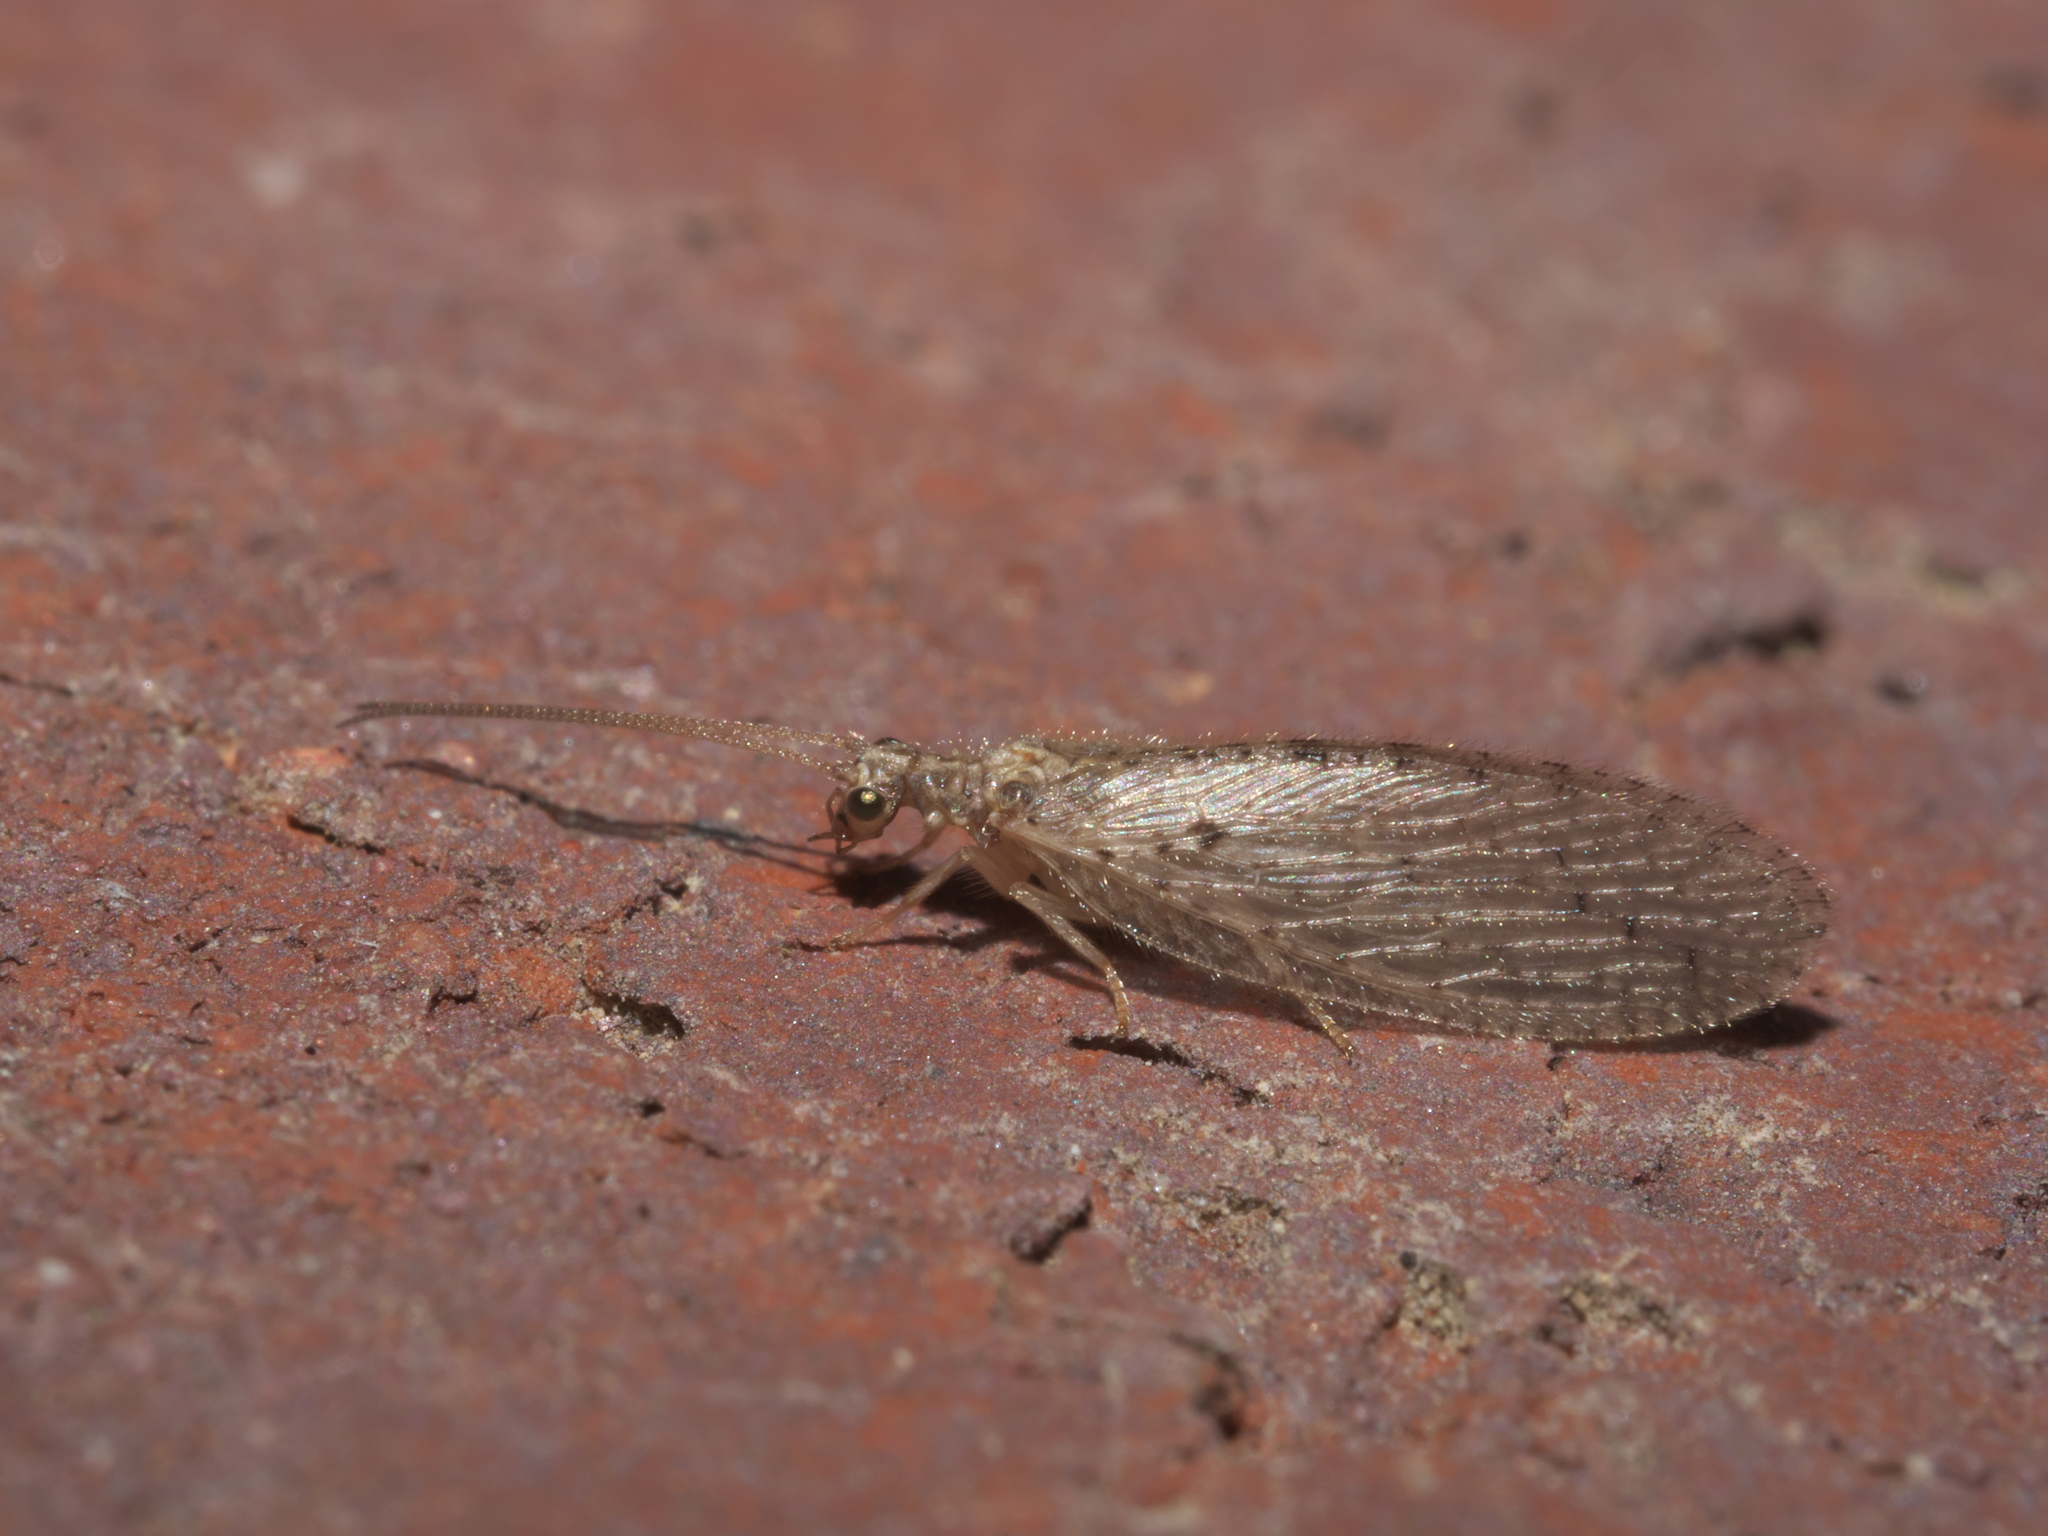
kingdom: Animalia
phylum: Arthropoda
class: Insecta
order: Neuroptera
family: Hemerobiidae
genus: Micromus
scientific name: Micromus subanticus
